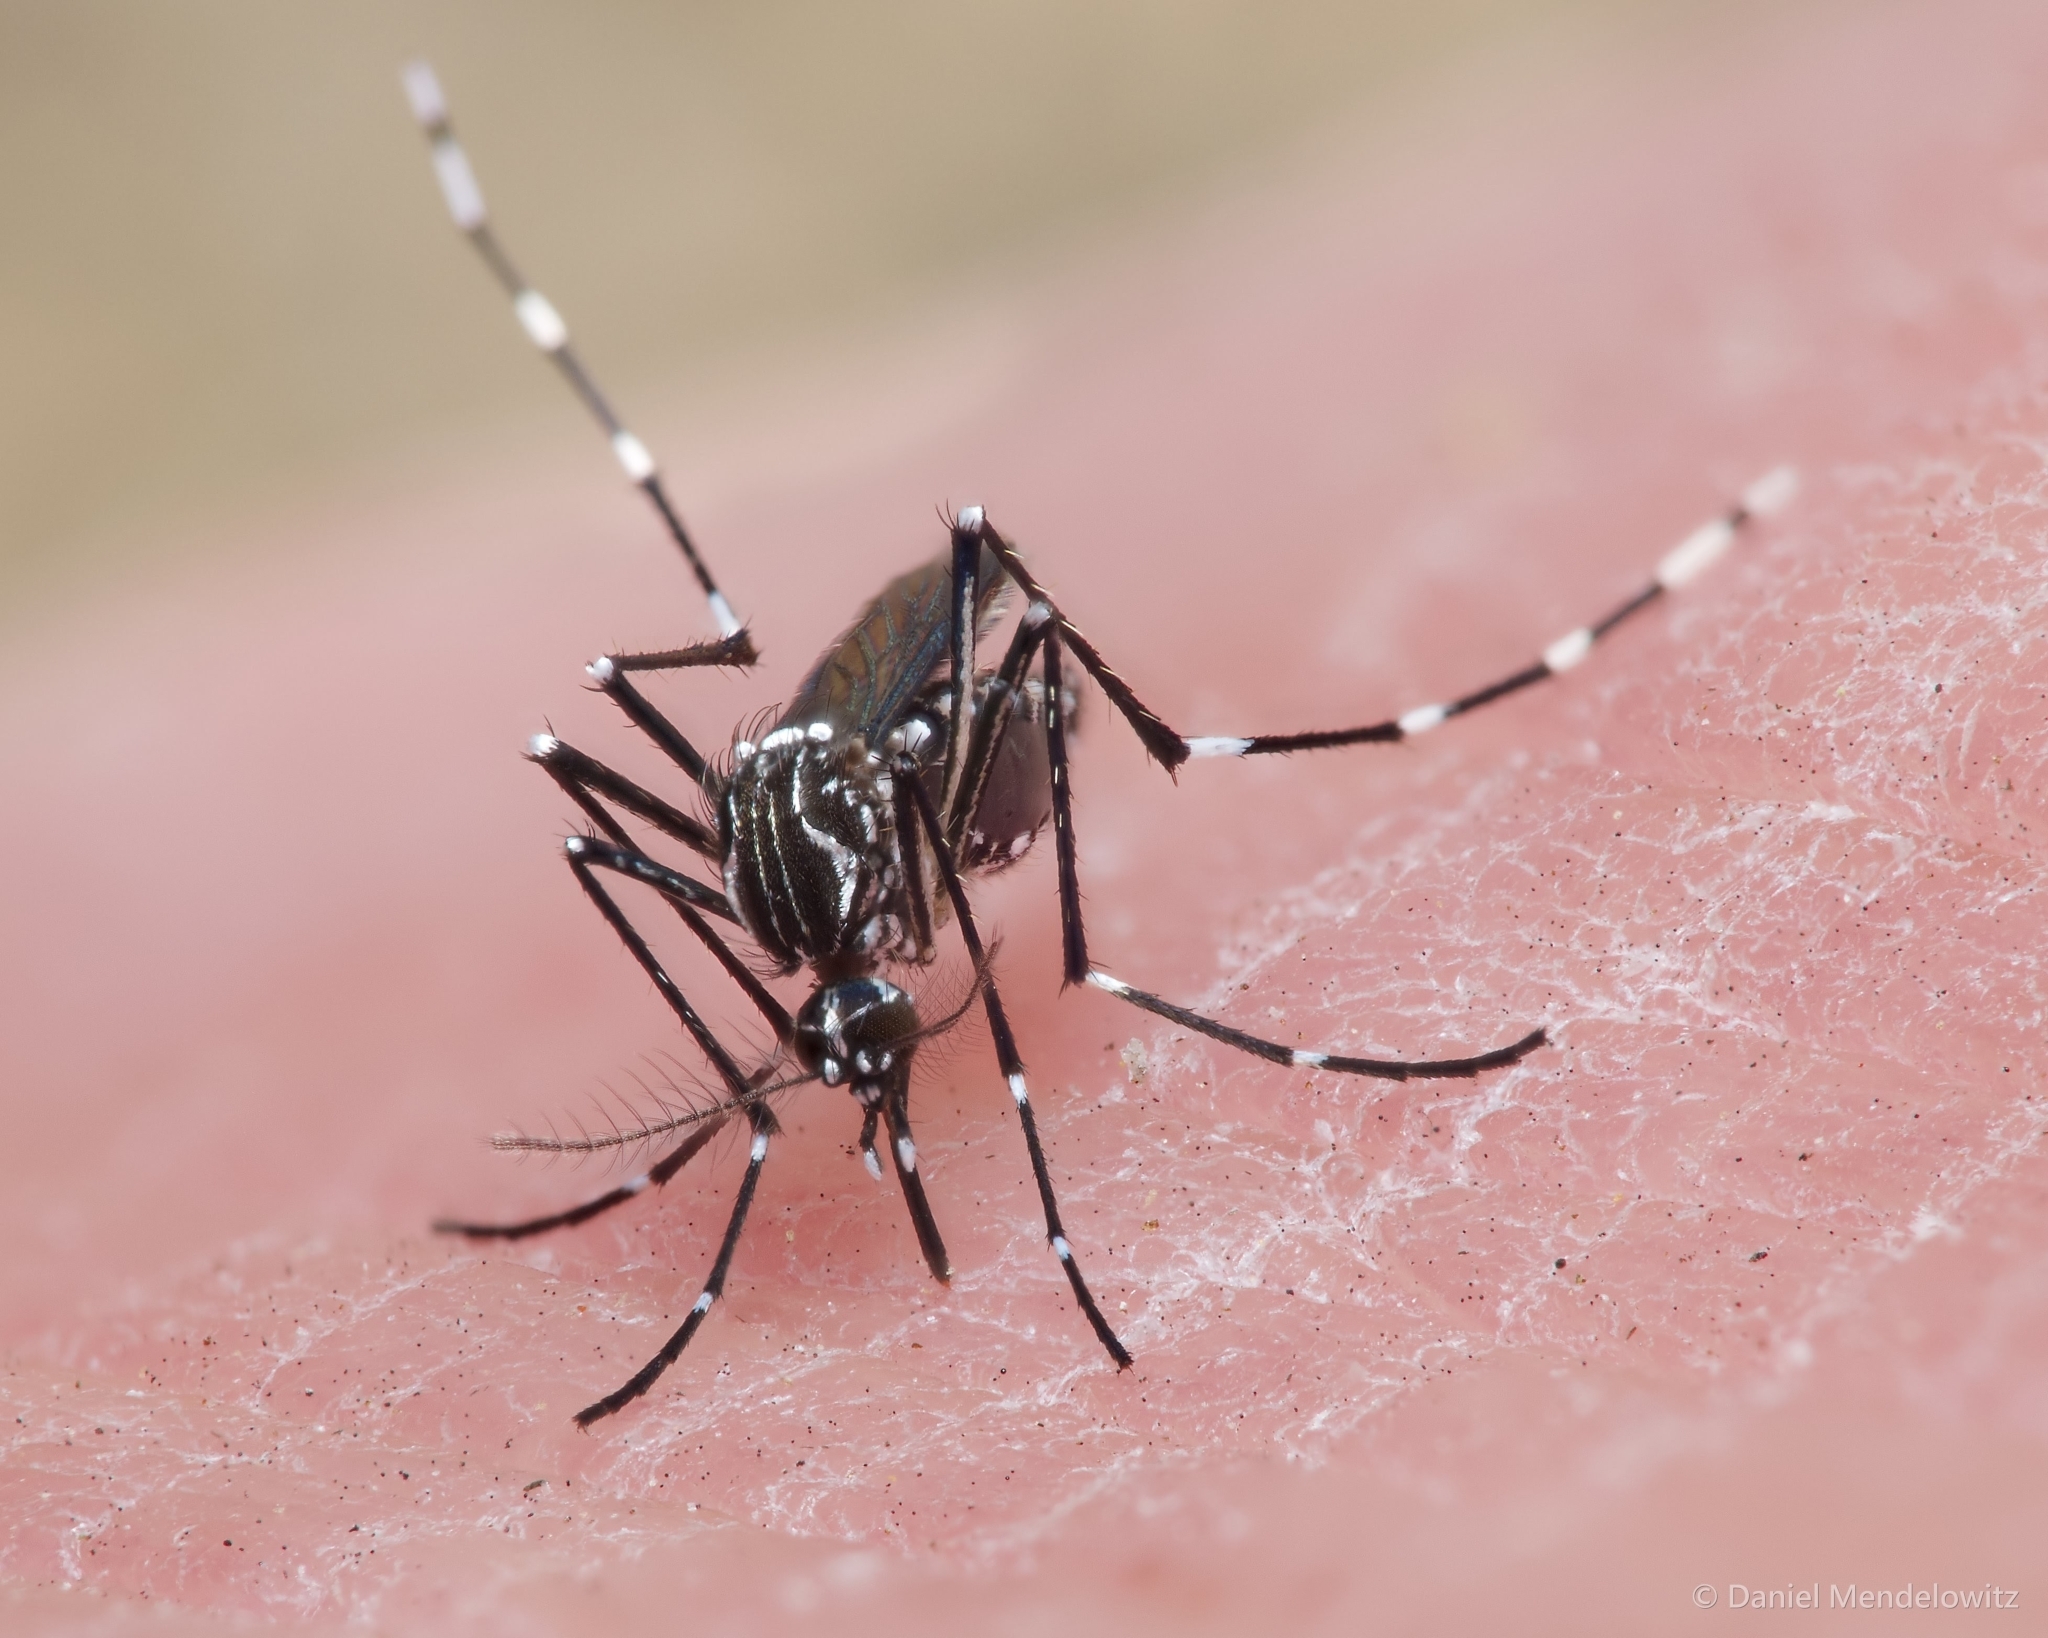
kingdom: Animalia
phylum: Arthropoda
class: Insecta
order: Diptera
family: Culicidae
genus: Aedes
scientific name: Aedes aegypti
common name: Yellow fever mosquito
